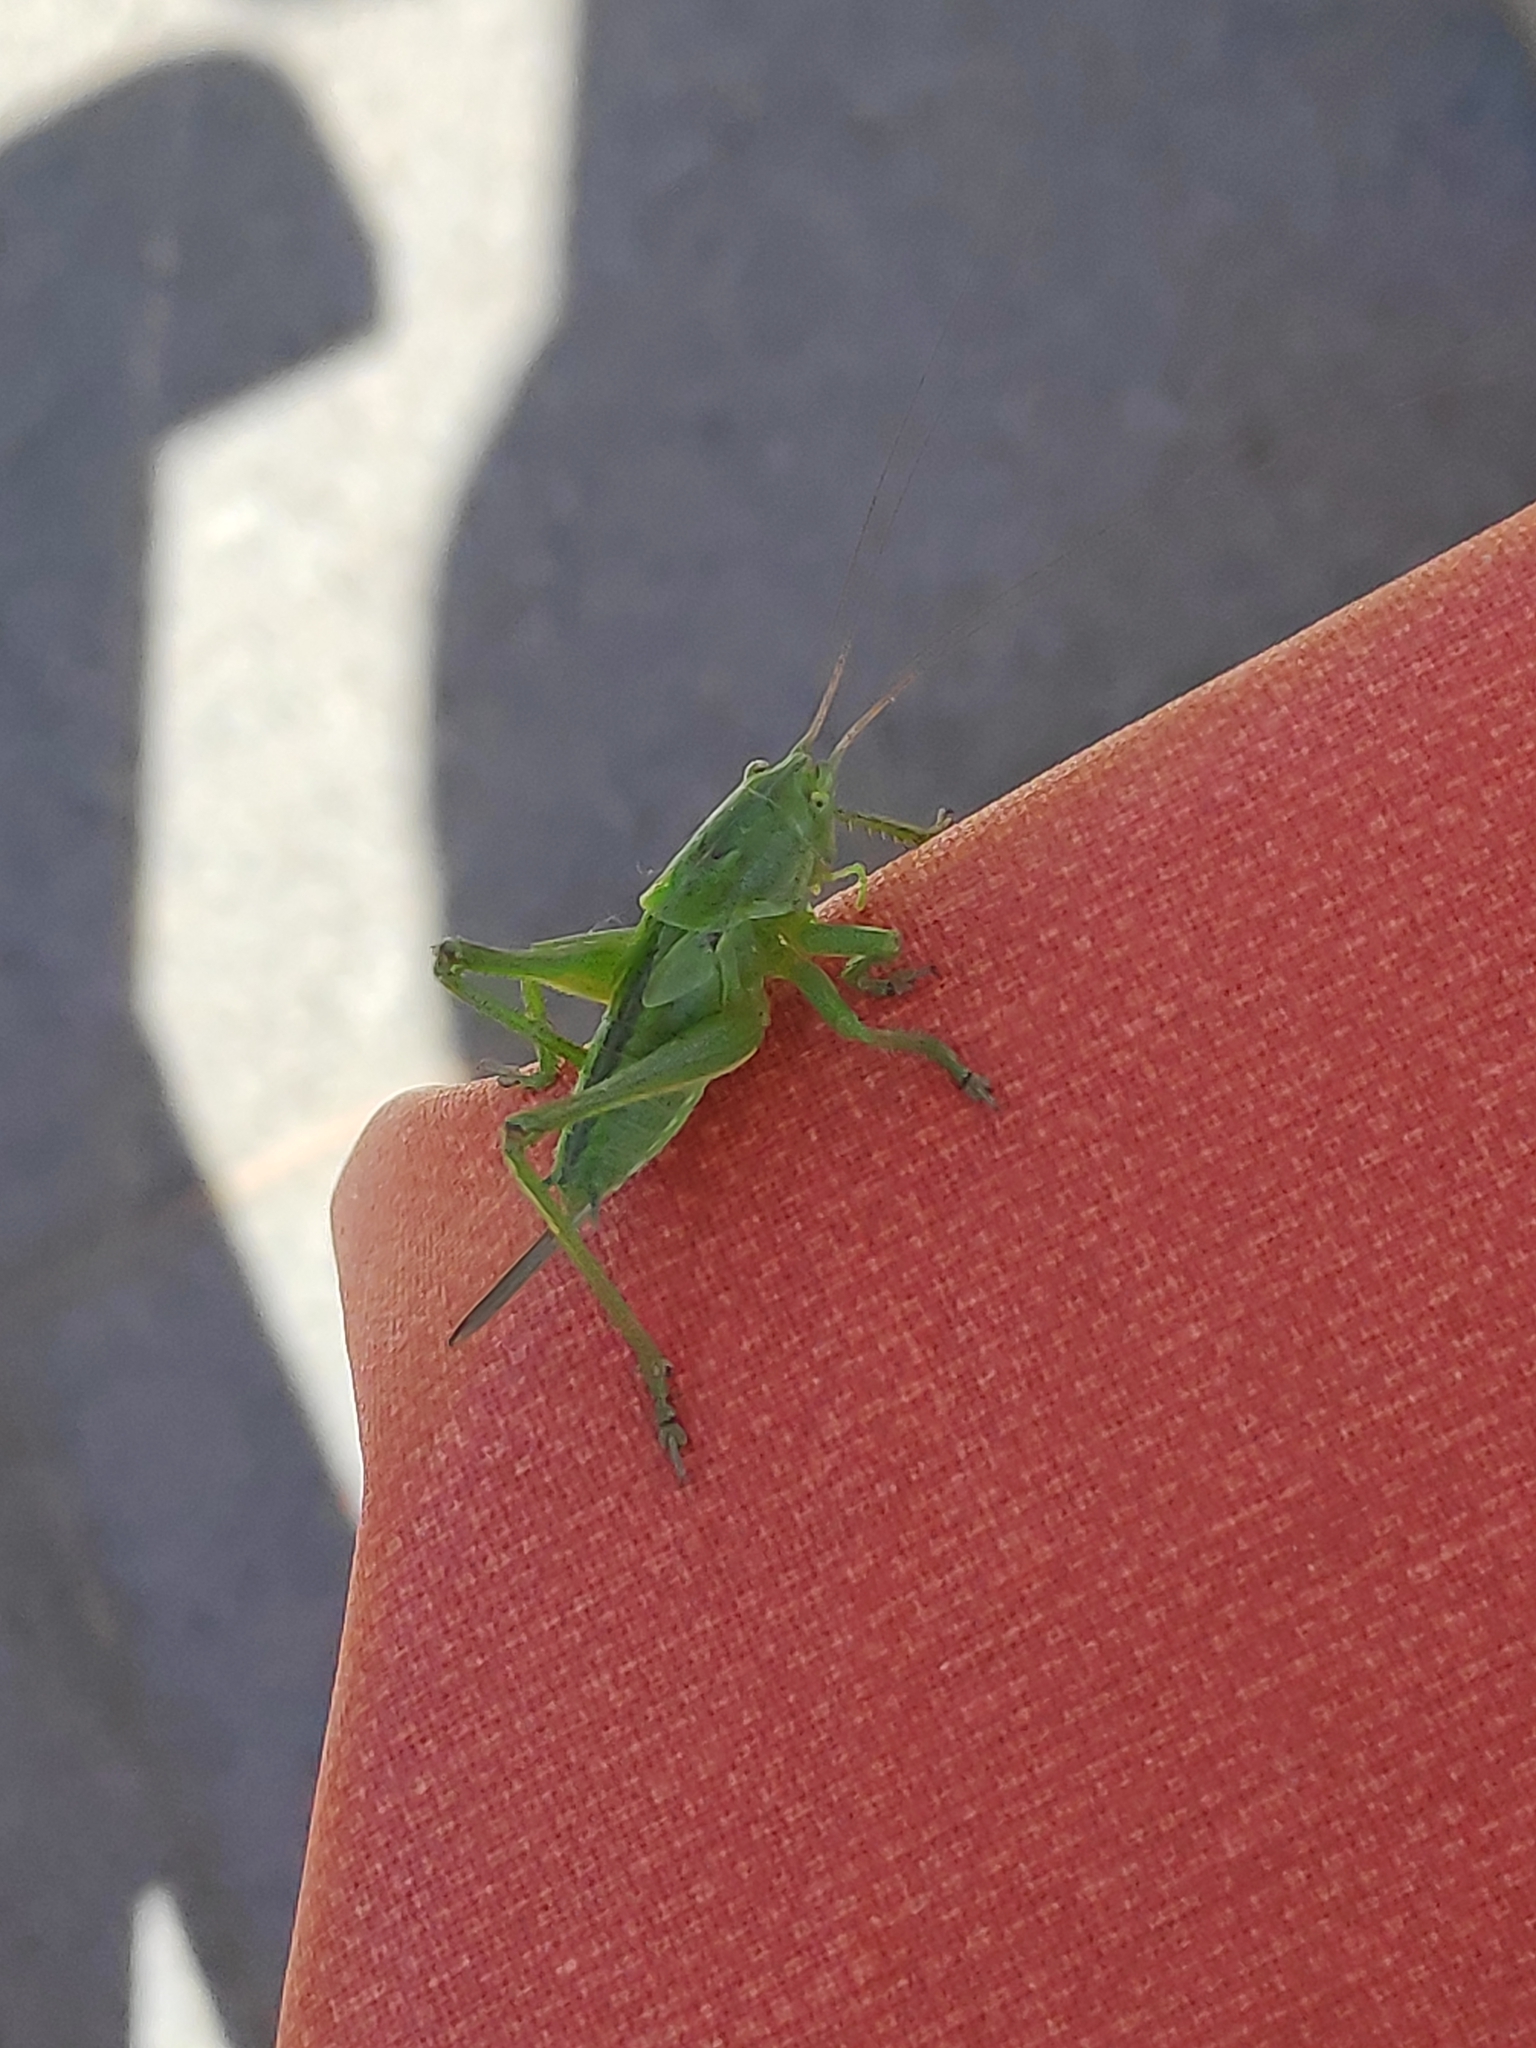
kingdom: Animalia
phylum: Arthropoda
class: Insecta
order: Orthoptera
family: Tettigoniidae
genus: Tettigonia
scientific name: Tettigonia viridissima
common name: Great green bush-cricket
